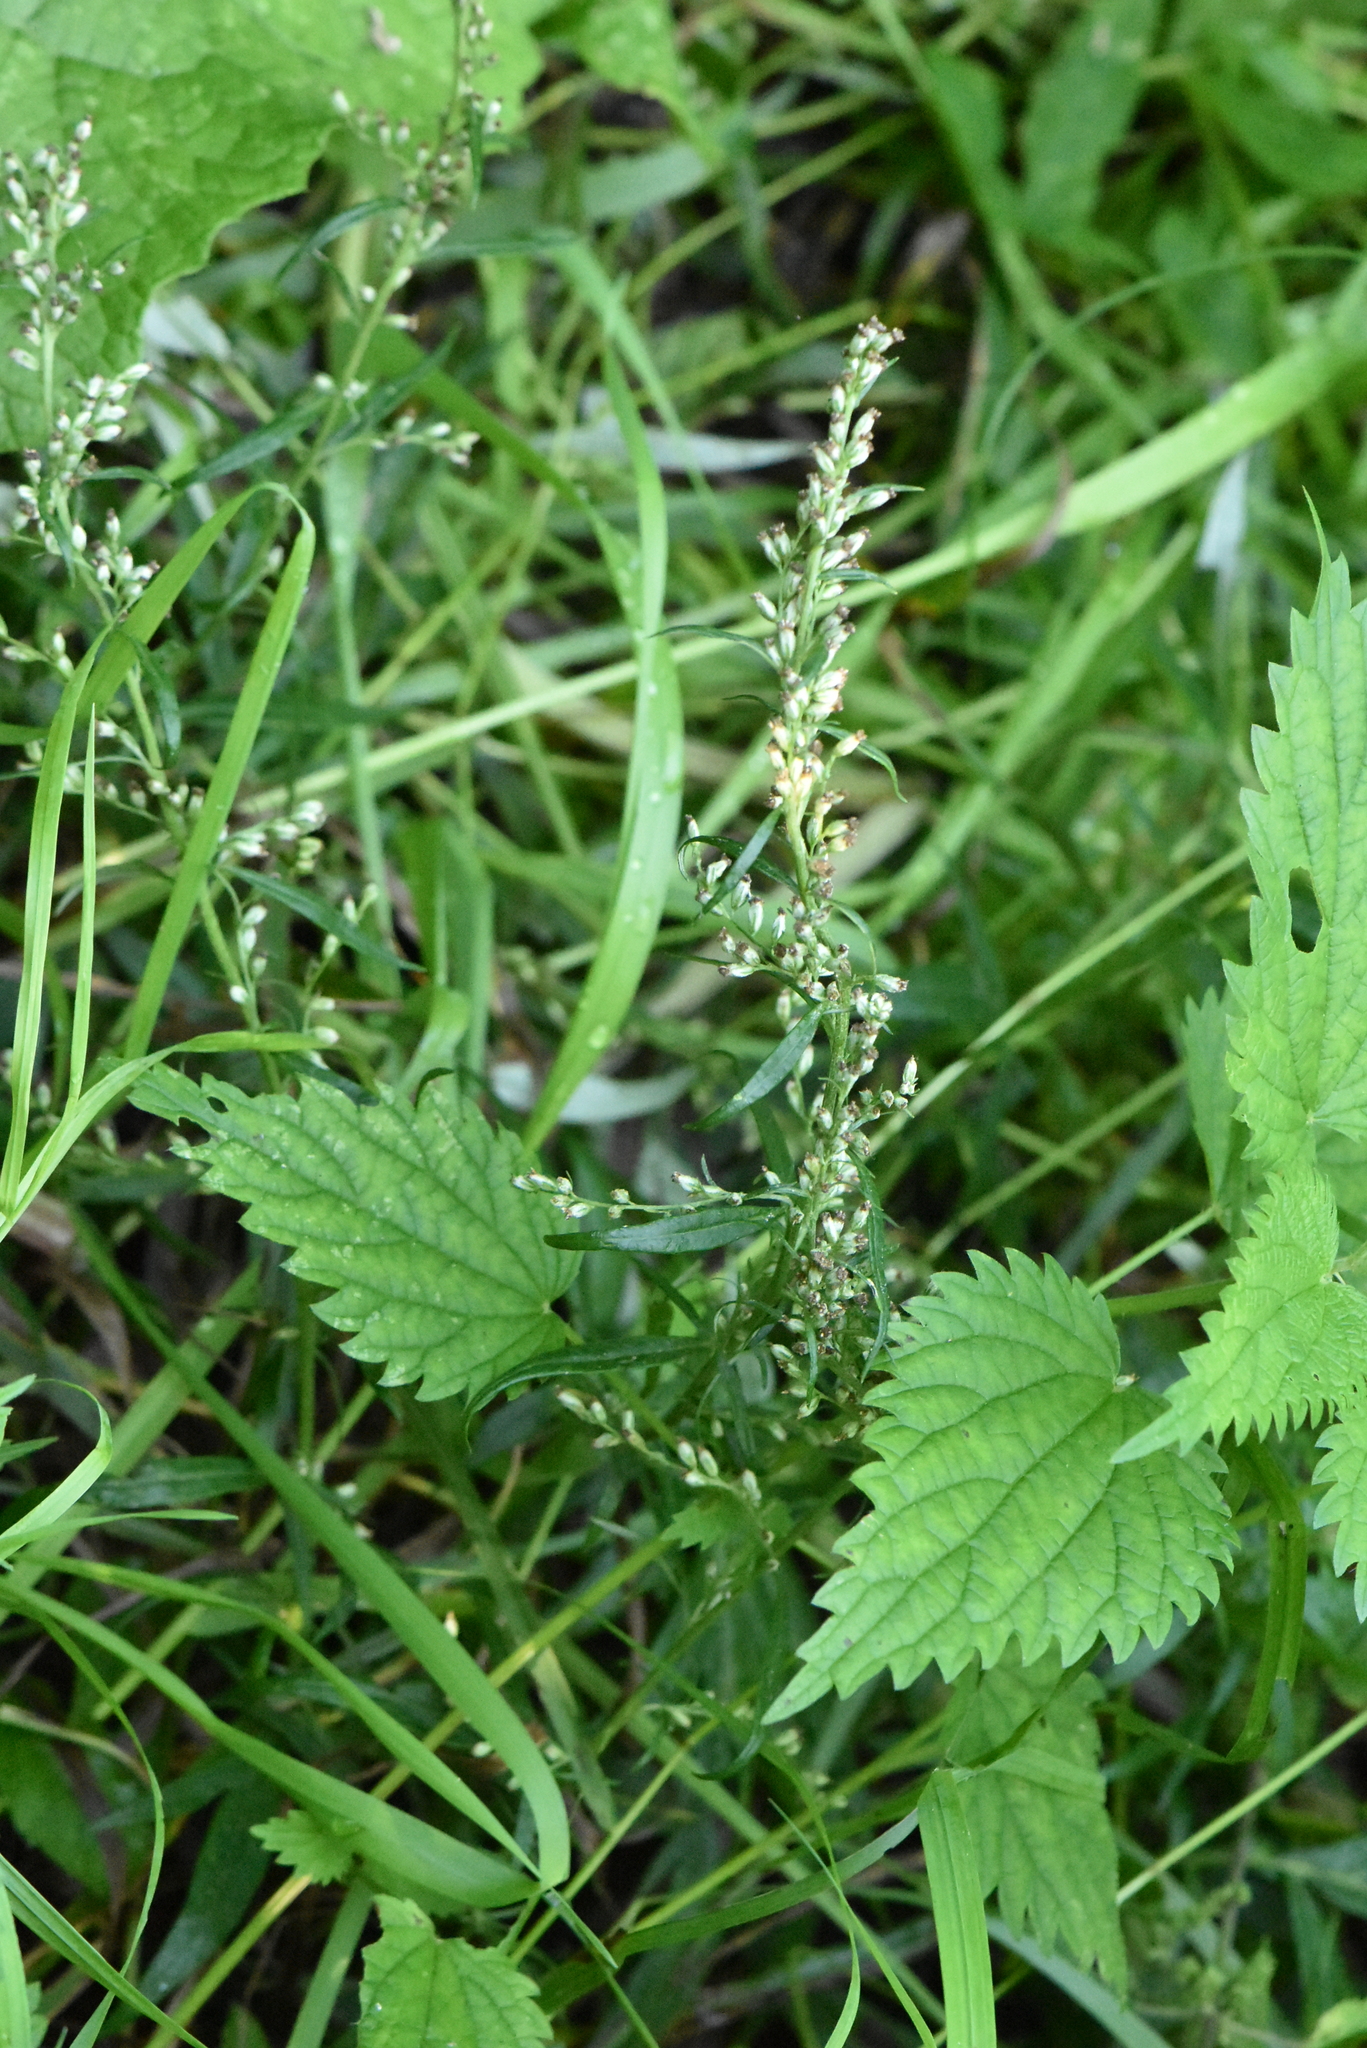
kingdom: Plantae
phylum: Tracheophyta
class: Magnoliopsida
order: Asterales
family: Asteraceae
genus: Artemisia
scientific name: Artemisia vulgaris
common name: Mugwort
